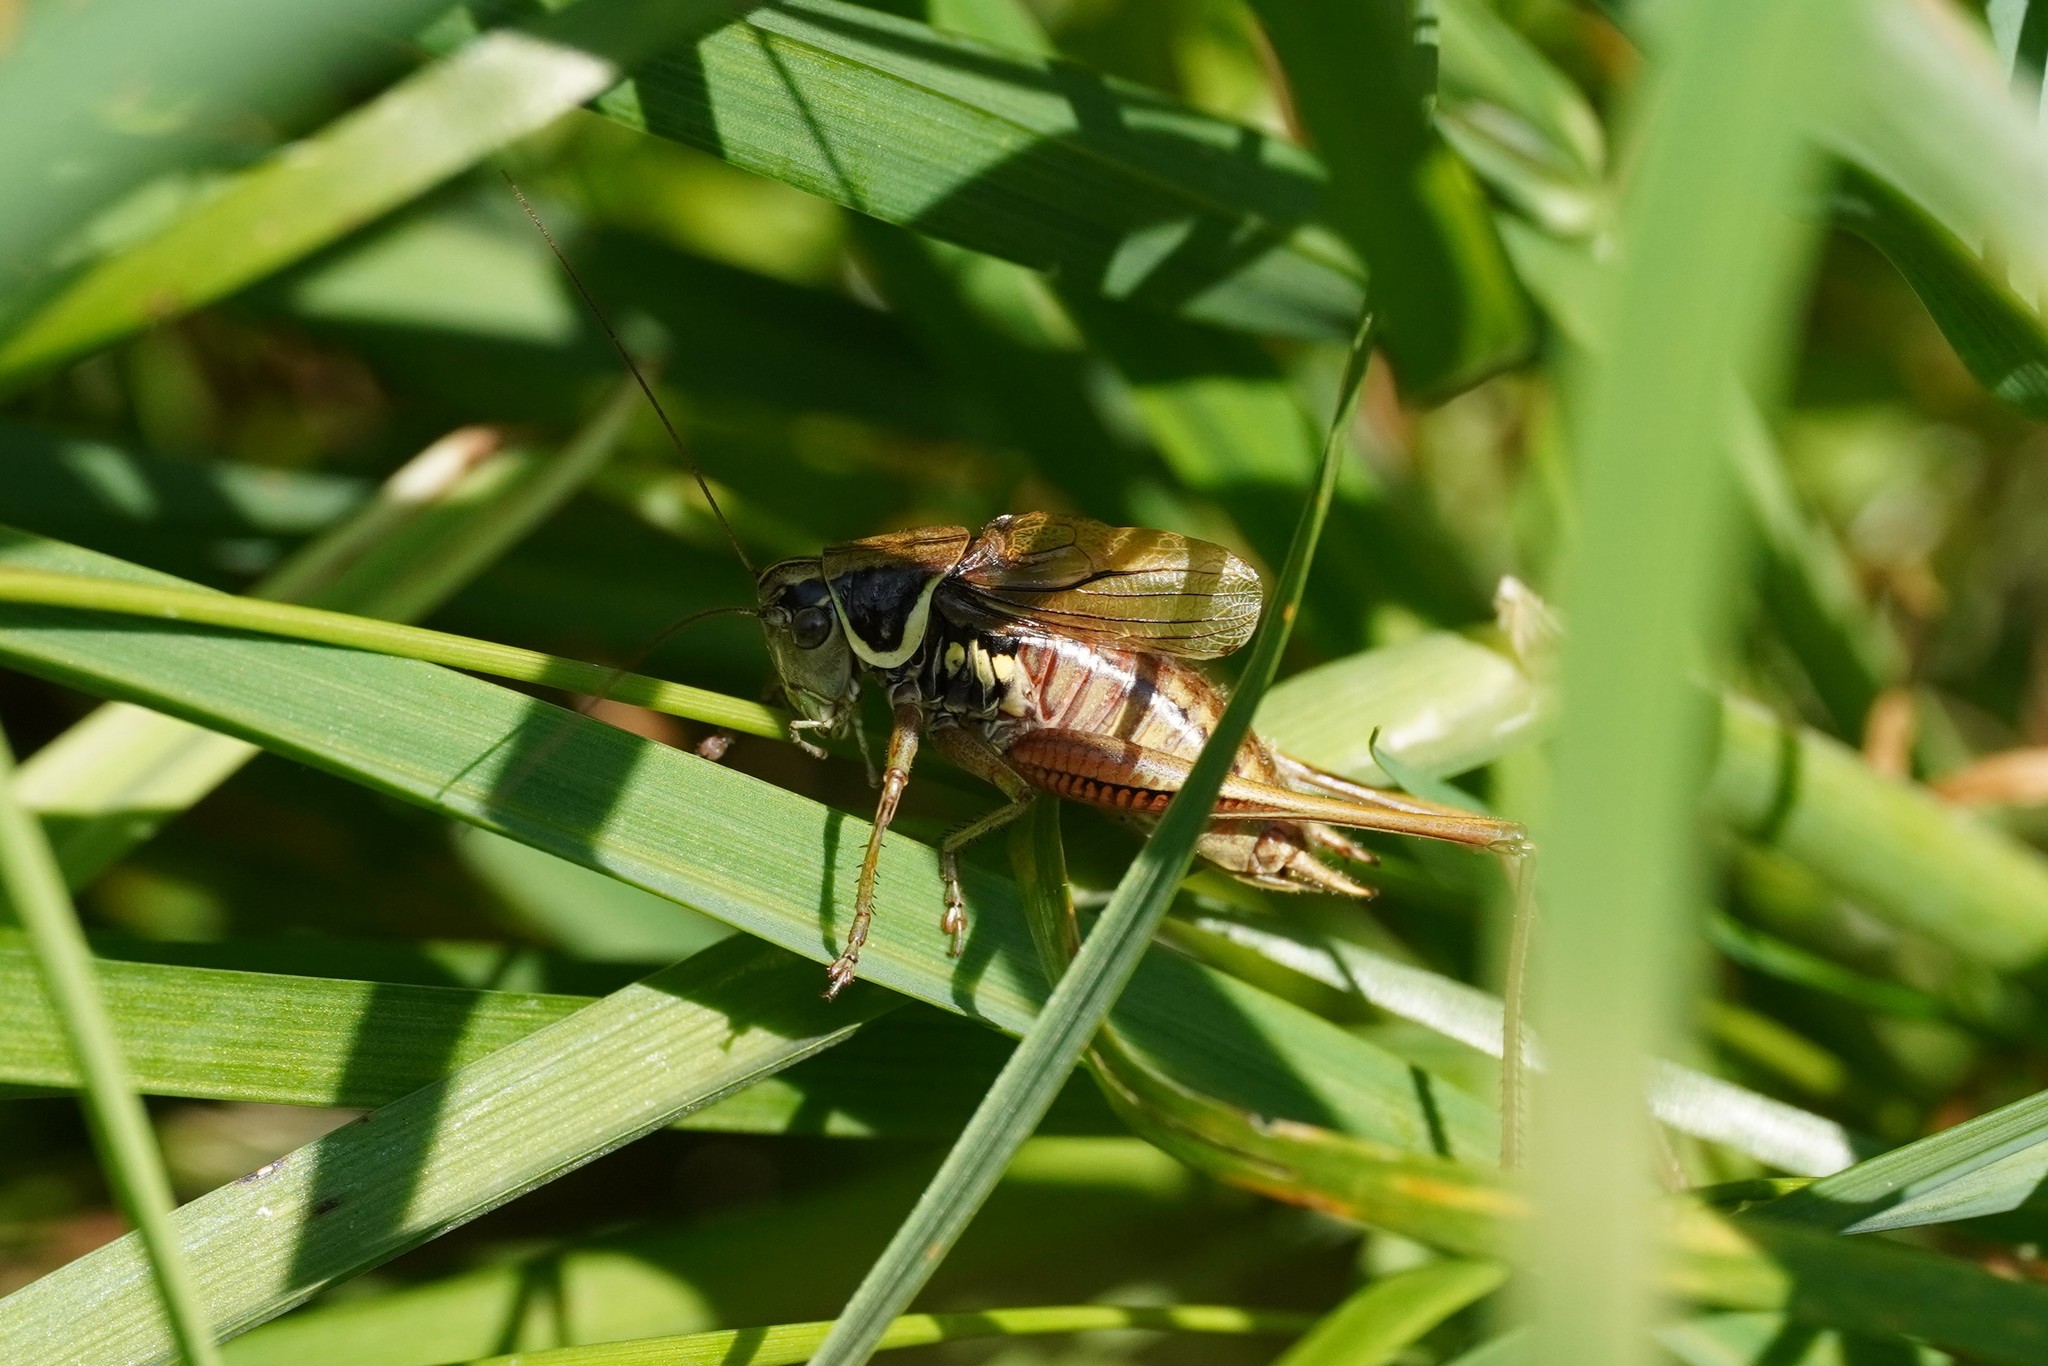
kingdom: Animalia
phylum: Arthropoda
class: Insecta
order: Orthoptera
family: Tettigoniidae
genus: Roeseliana
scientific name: Roeseliana roeselii
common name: Roesel's bush cricket
